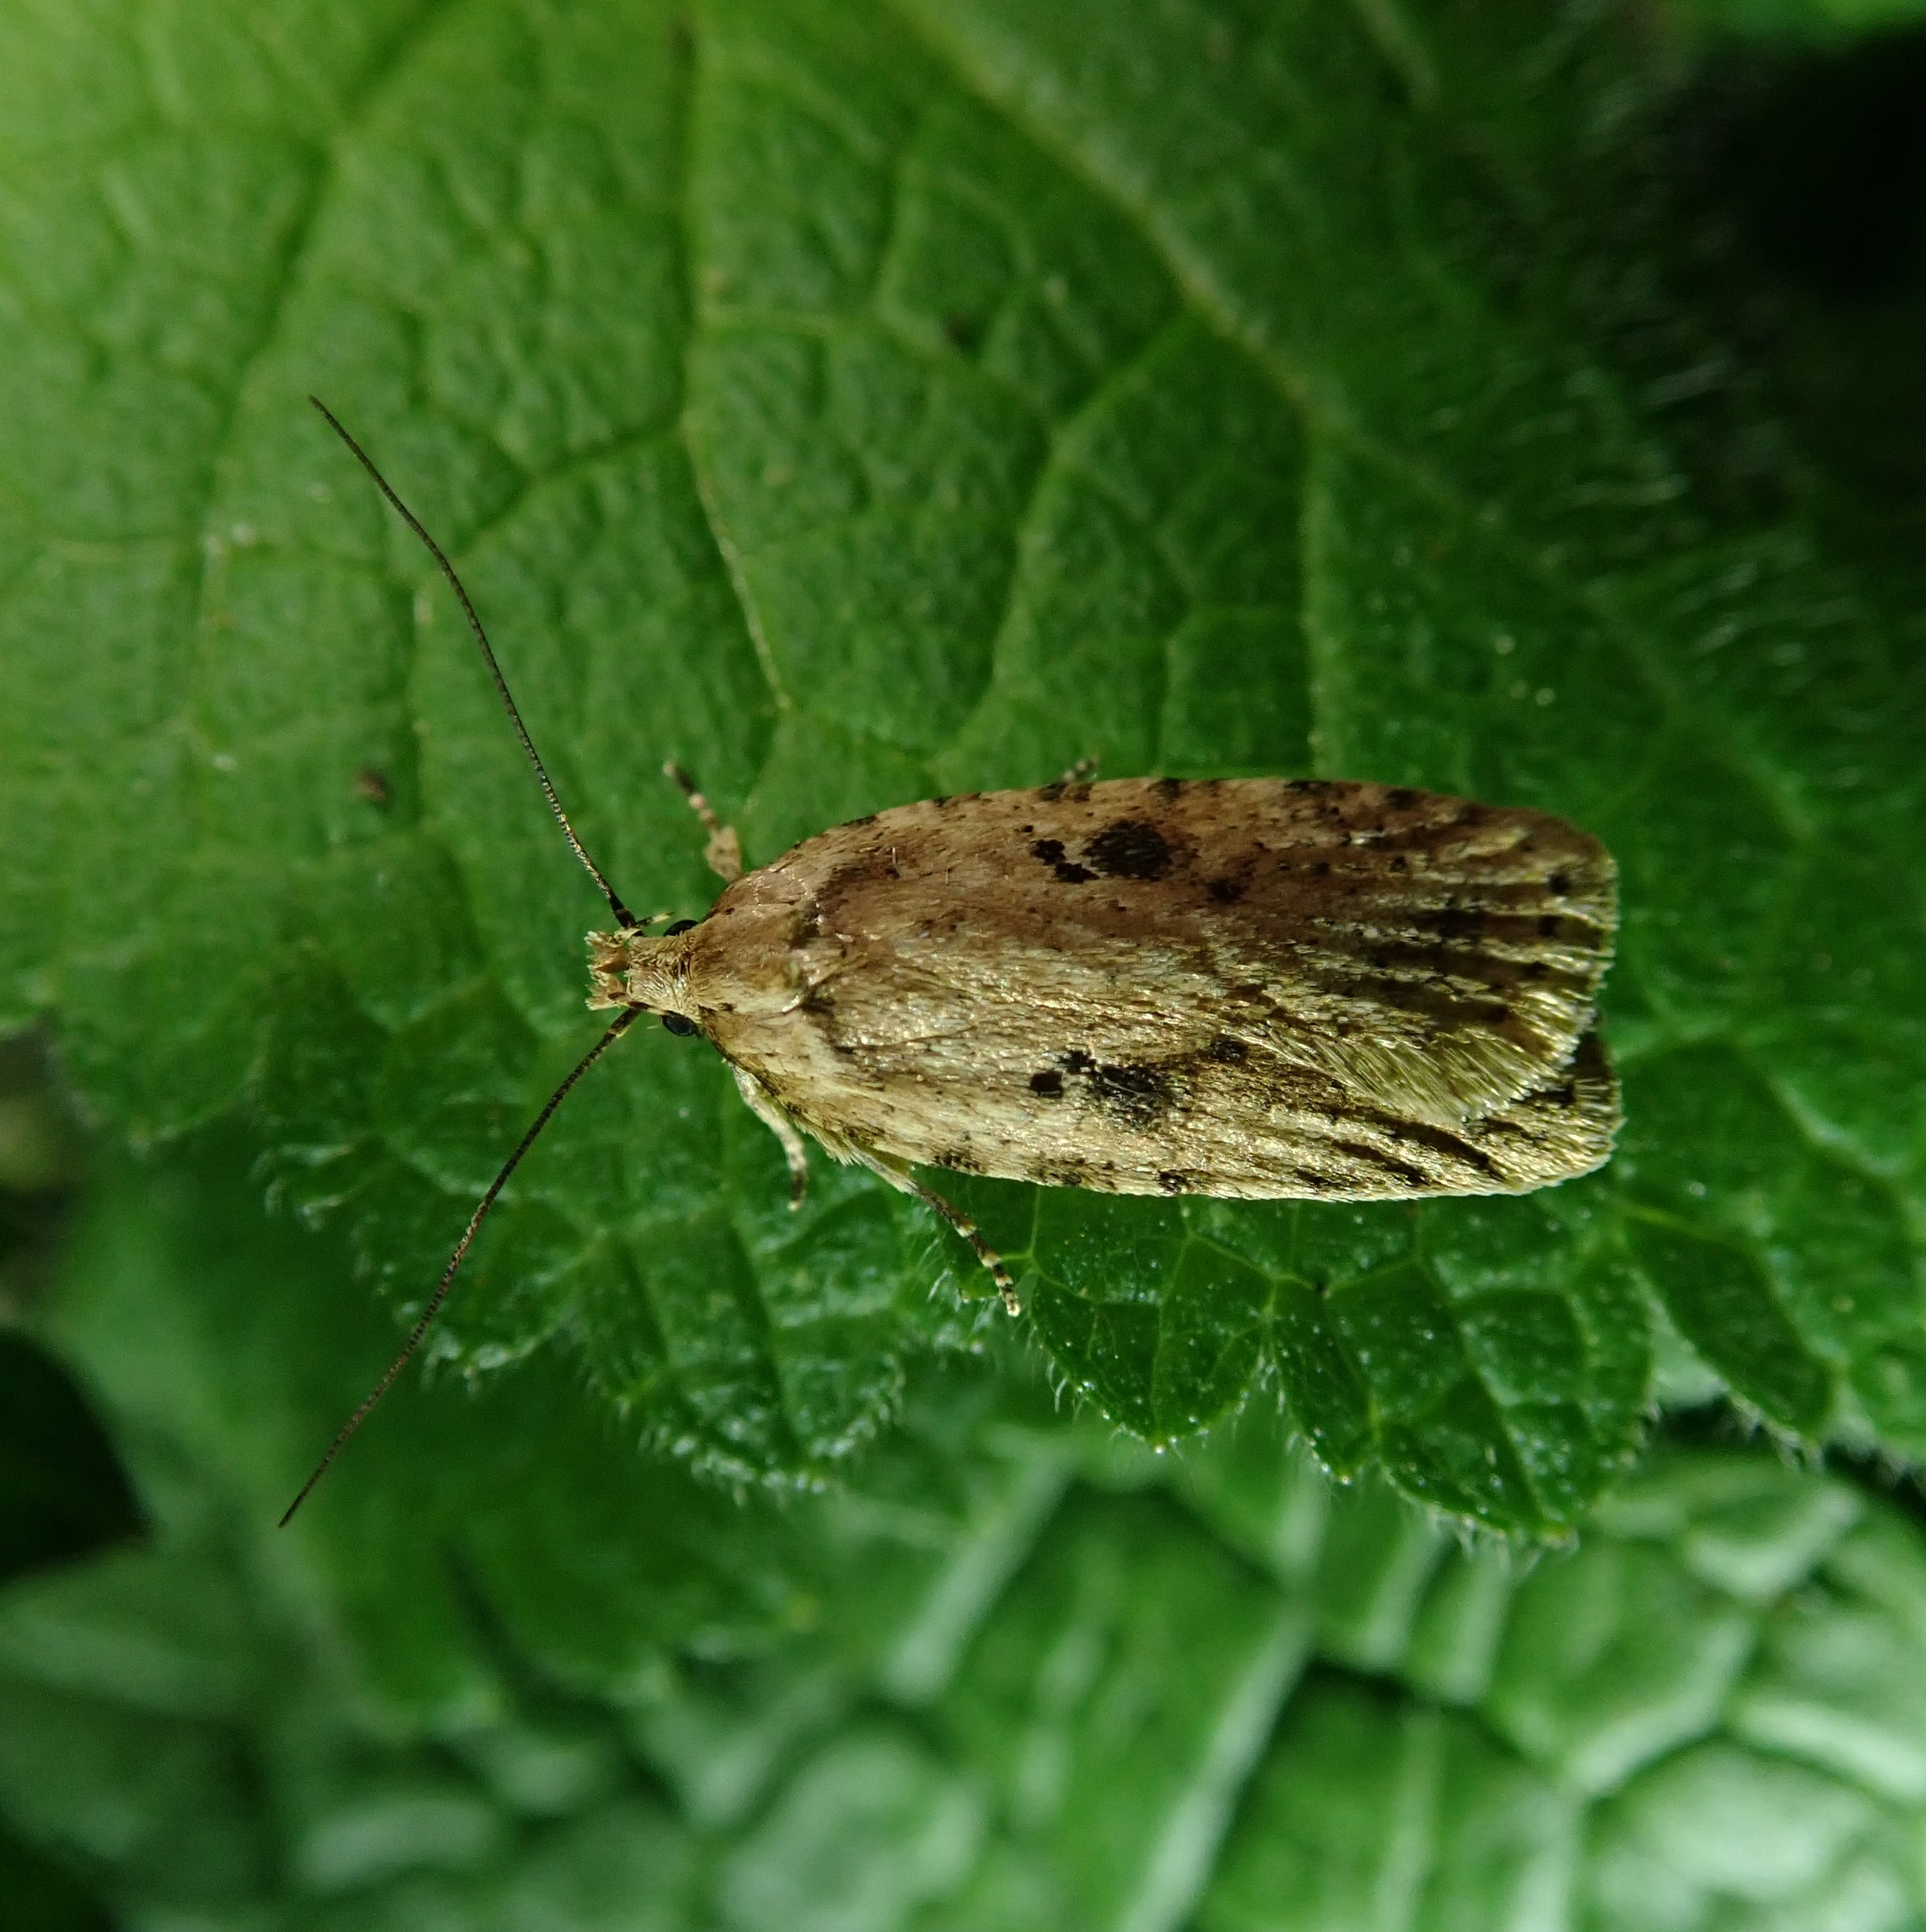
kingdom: Animalia
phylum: Arthropoda
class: Insecta
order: Lepidoptera
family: Depressariidae
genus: Agonopterix
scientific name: Agonopterix arenella
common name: Brindled flat-body
